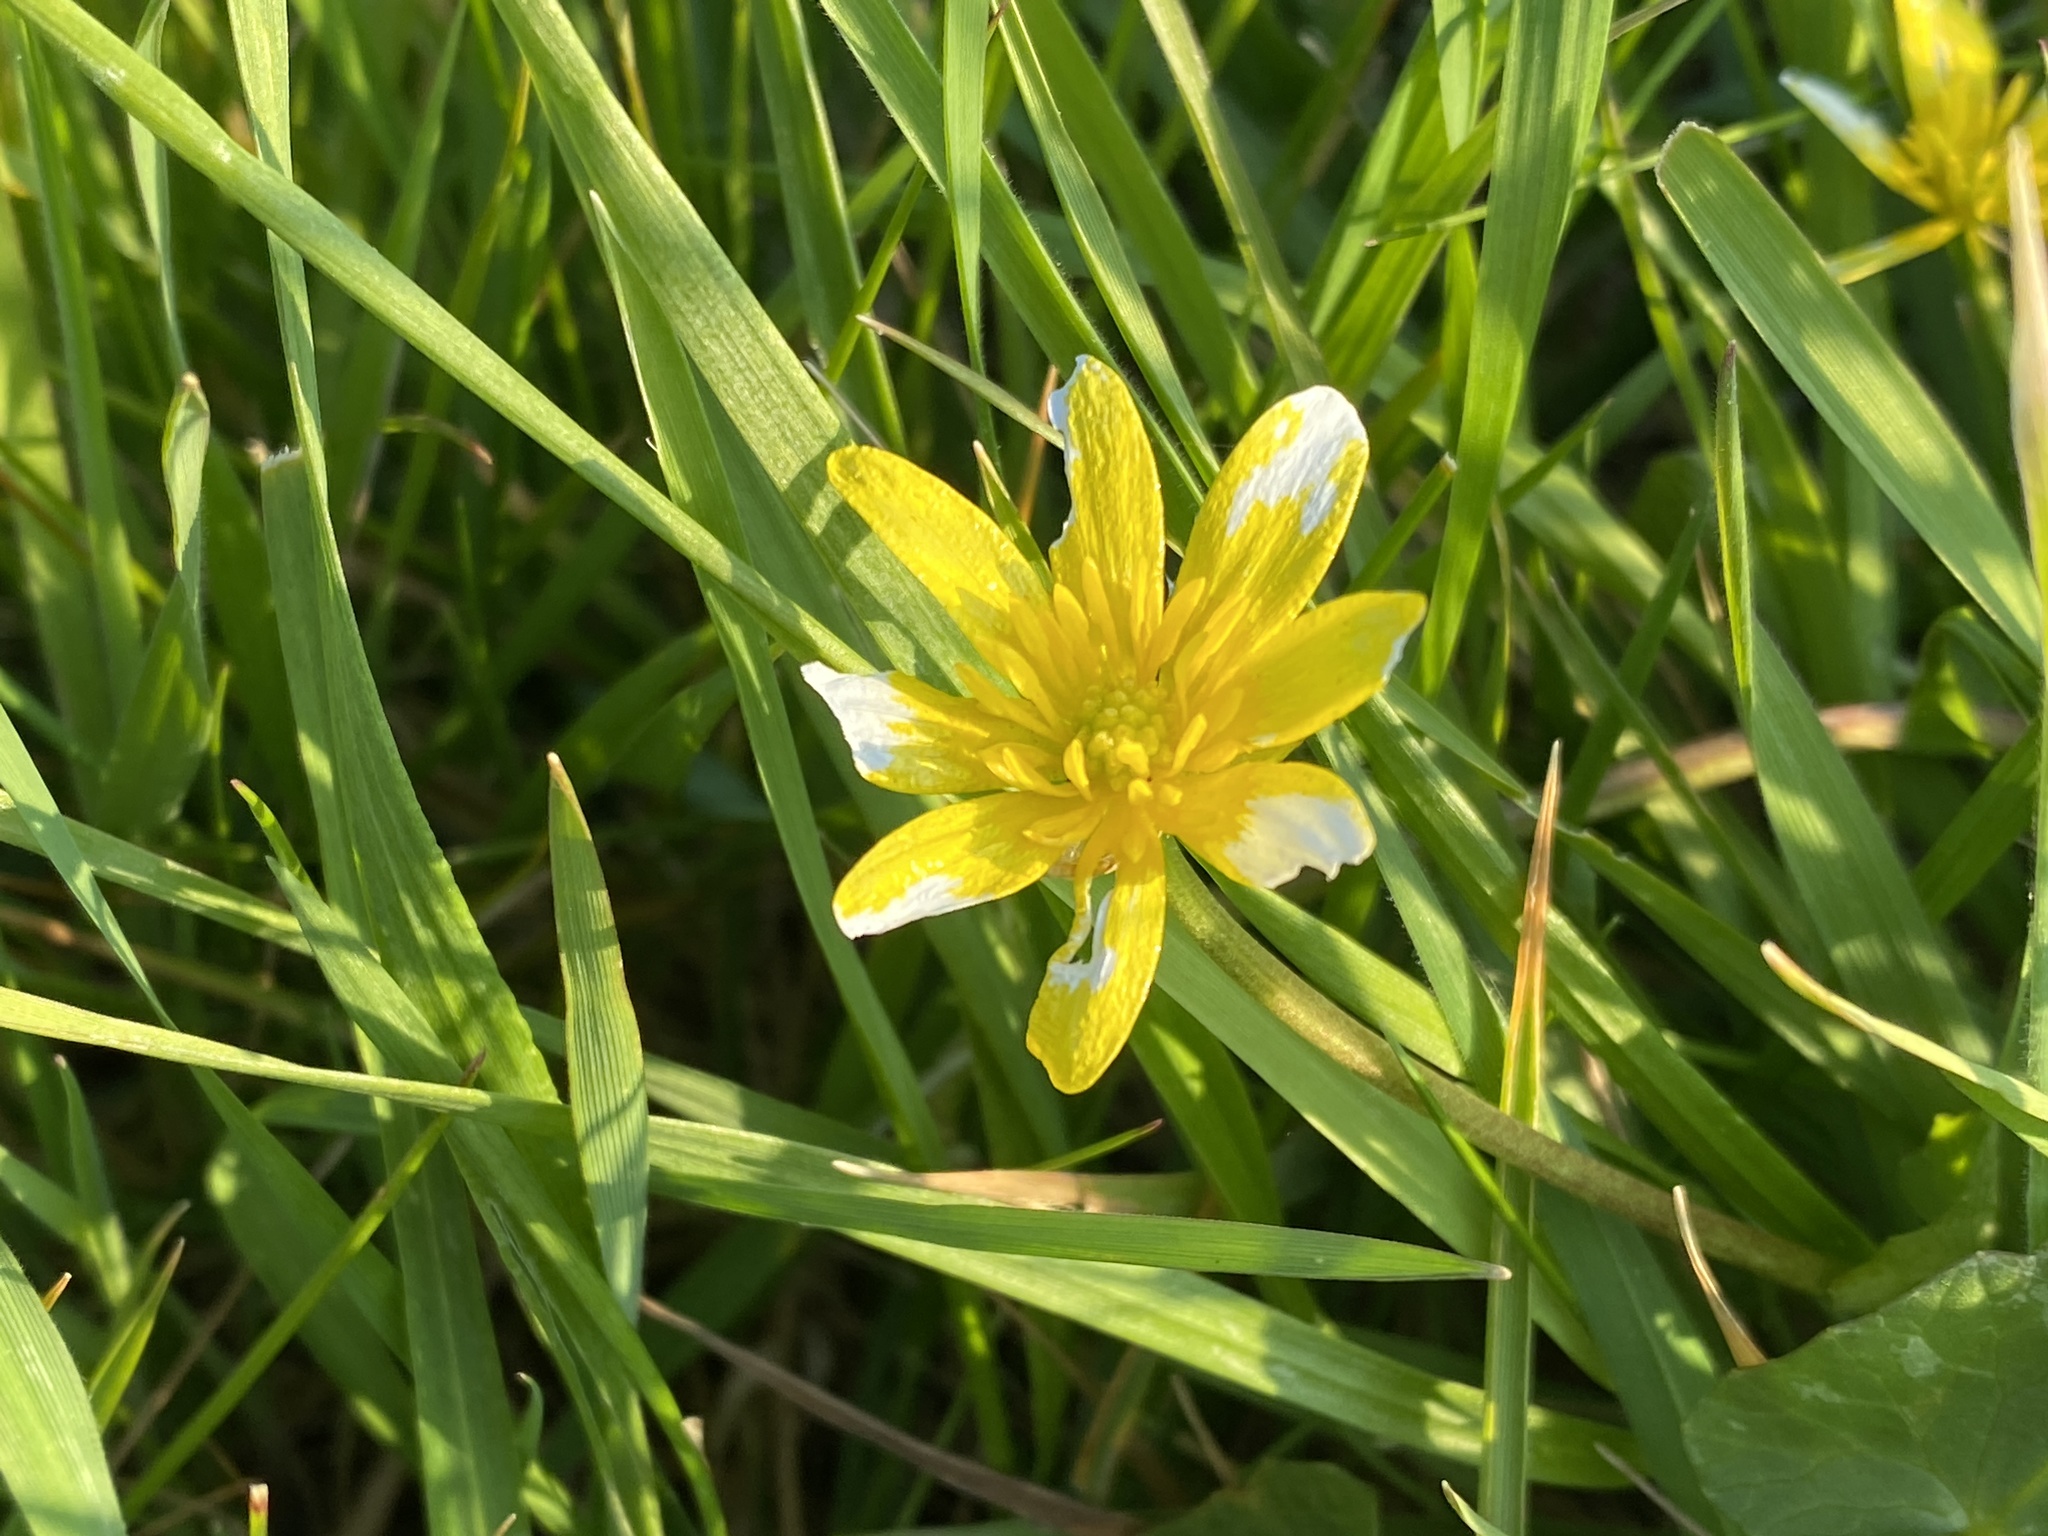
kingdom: Plantae
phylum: Tracheophyta
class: Magnoliopsida
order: Ranunculales
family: Ranunculaceae
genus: Ficaria
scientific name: Ficaria verna
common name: Lesser celandine
